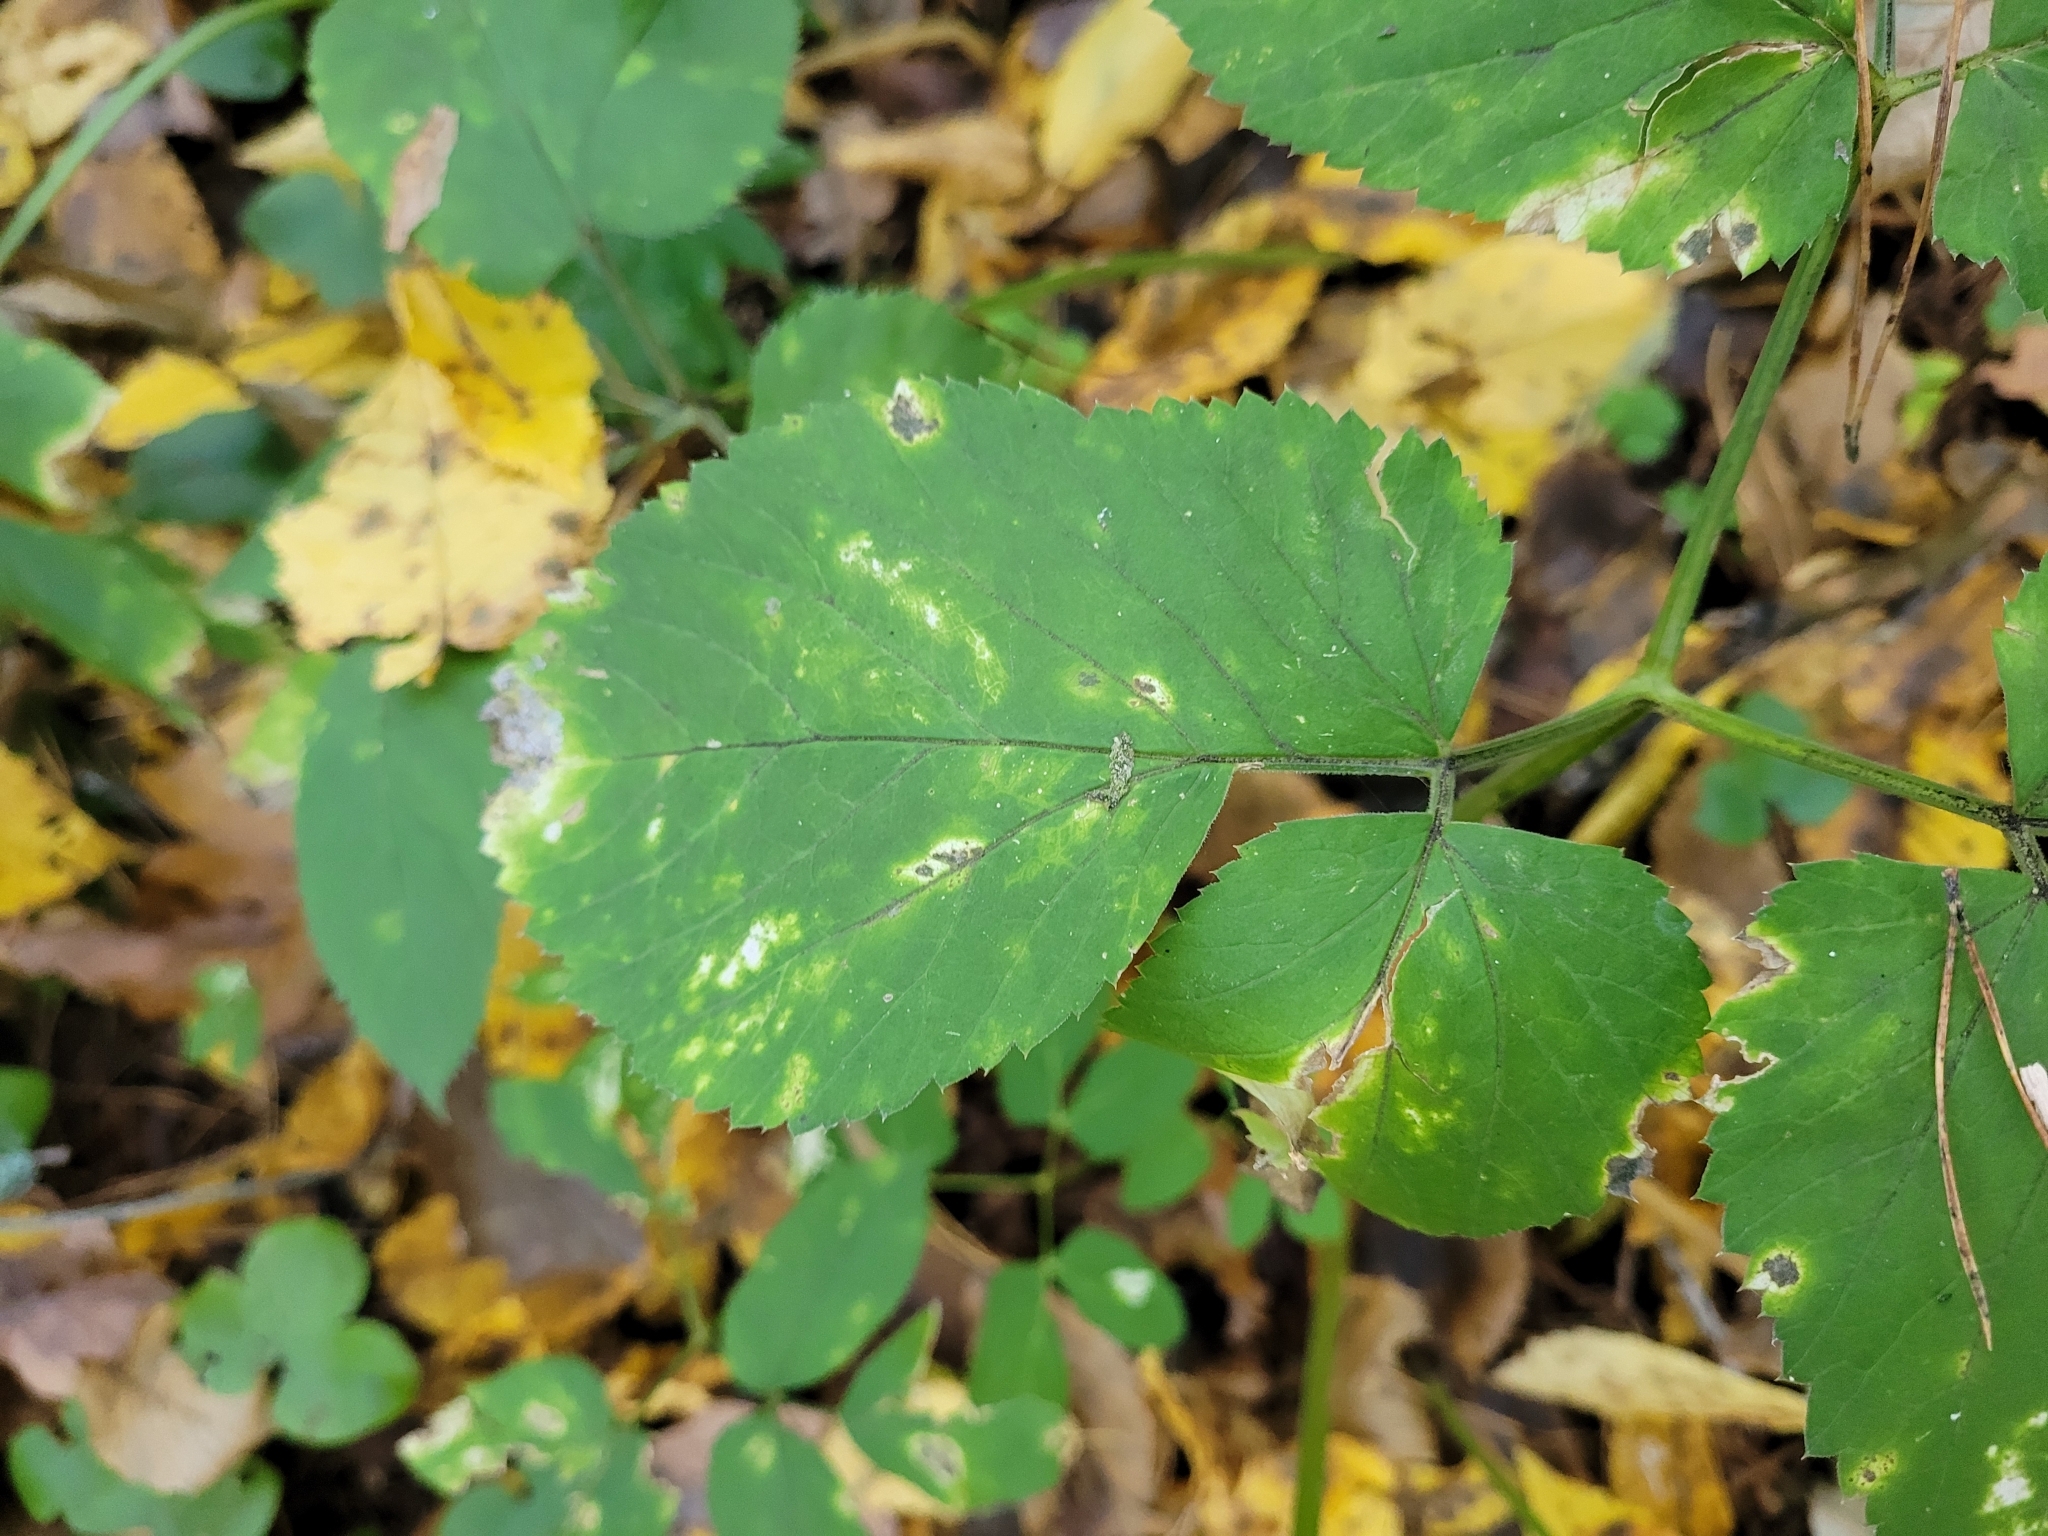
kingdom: Plantae
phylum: Tracheophyta
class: Magnoliopsida
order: Apiales
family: Apiaceae
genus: Aegopodium
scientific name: Aegopodium podagraria
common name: Ground-elder
